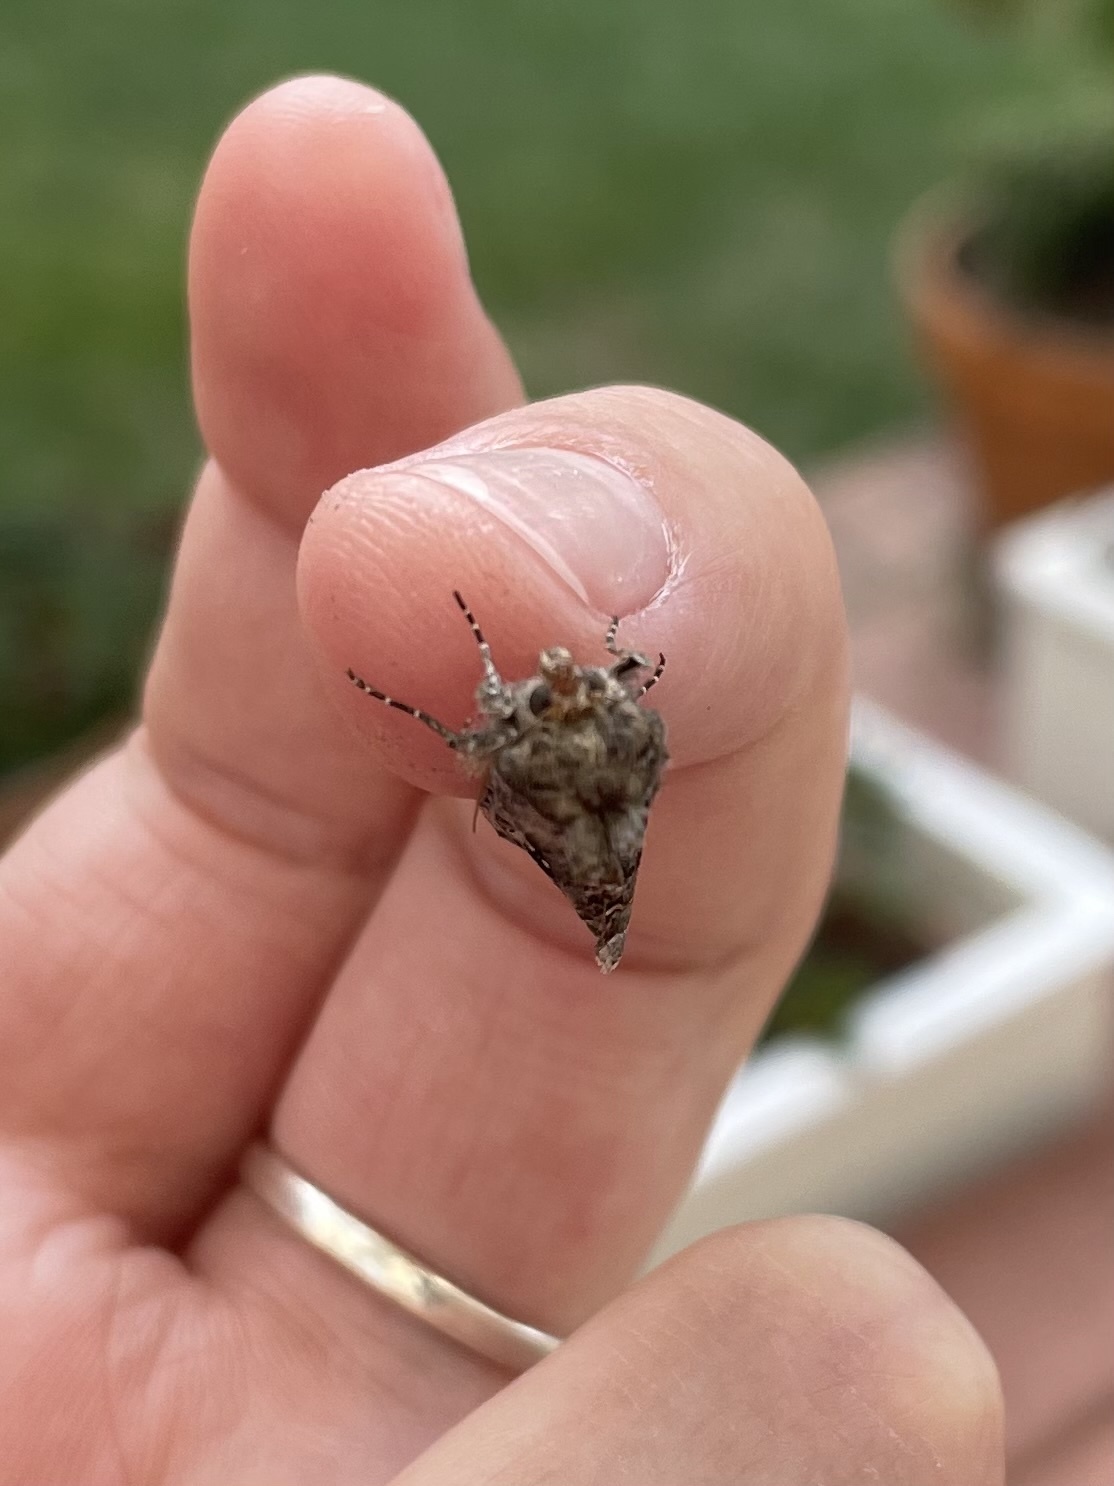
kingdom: Animalia
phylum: Arthropoda
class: Insecta
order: Lepidoptera
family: Noctuidae
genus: Autographa
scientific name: Autographa californica
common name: Alfalfa looper
